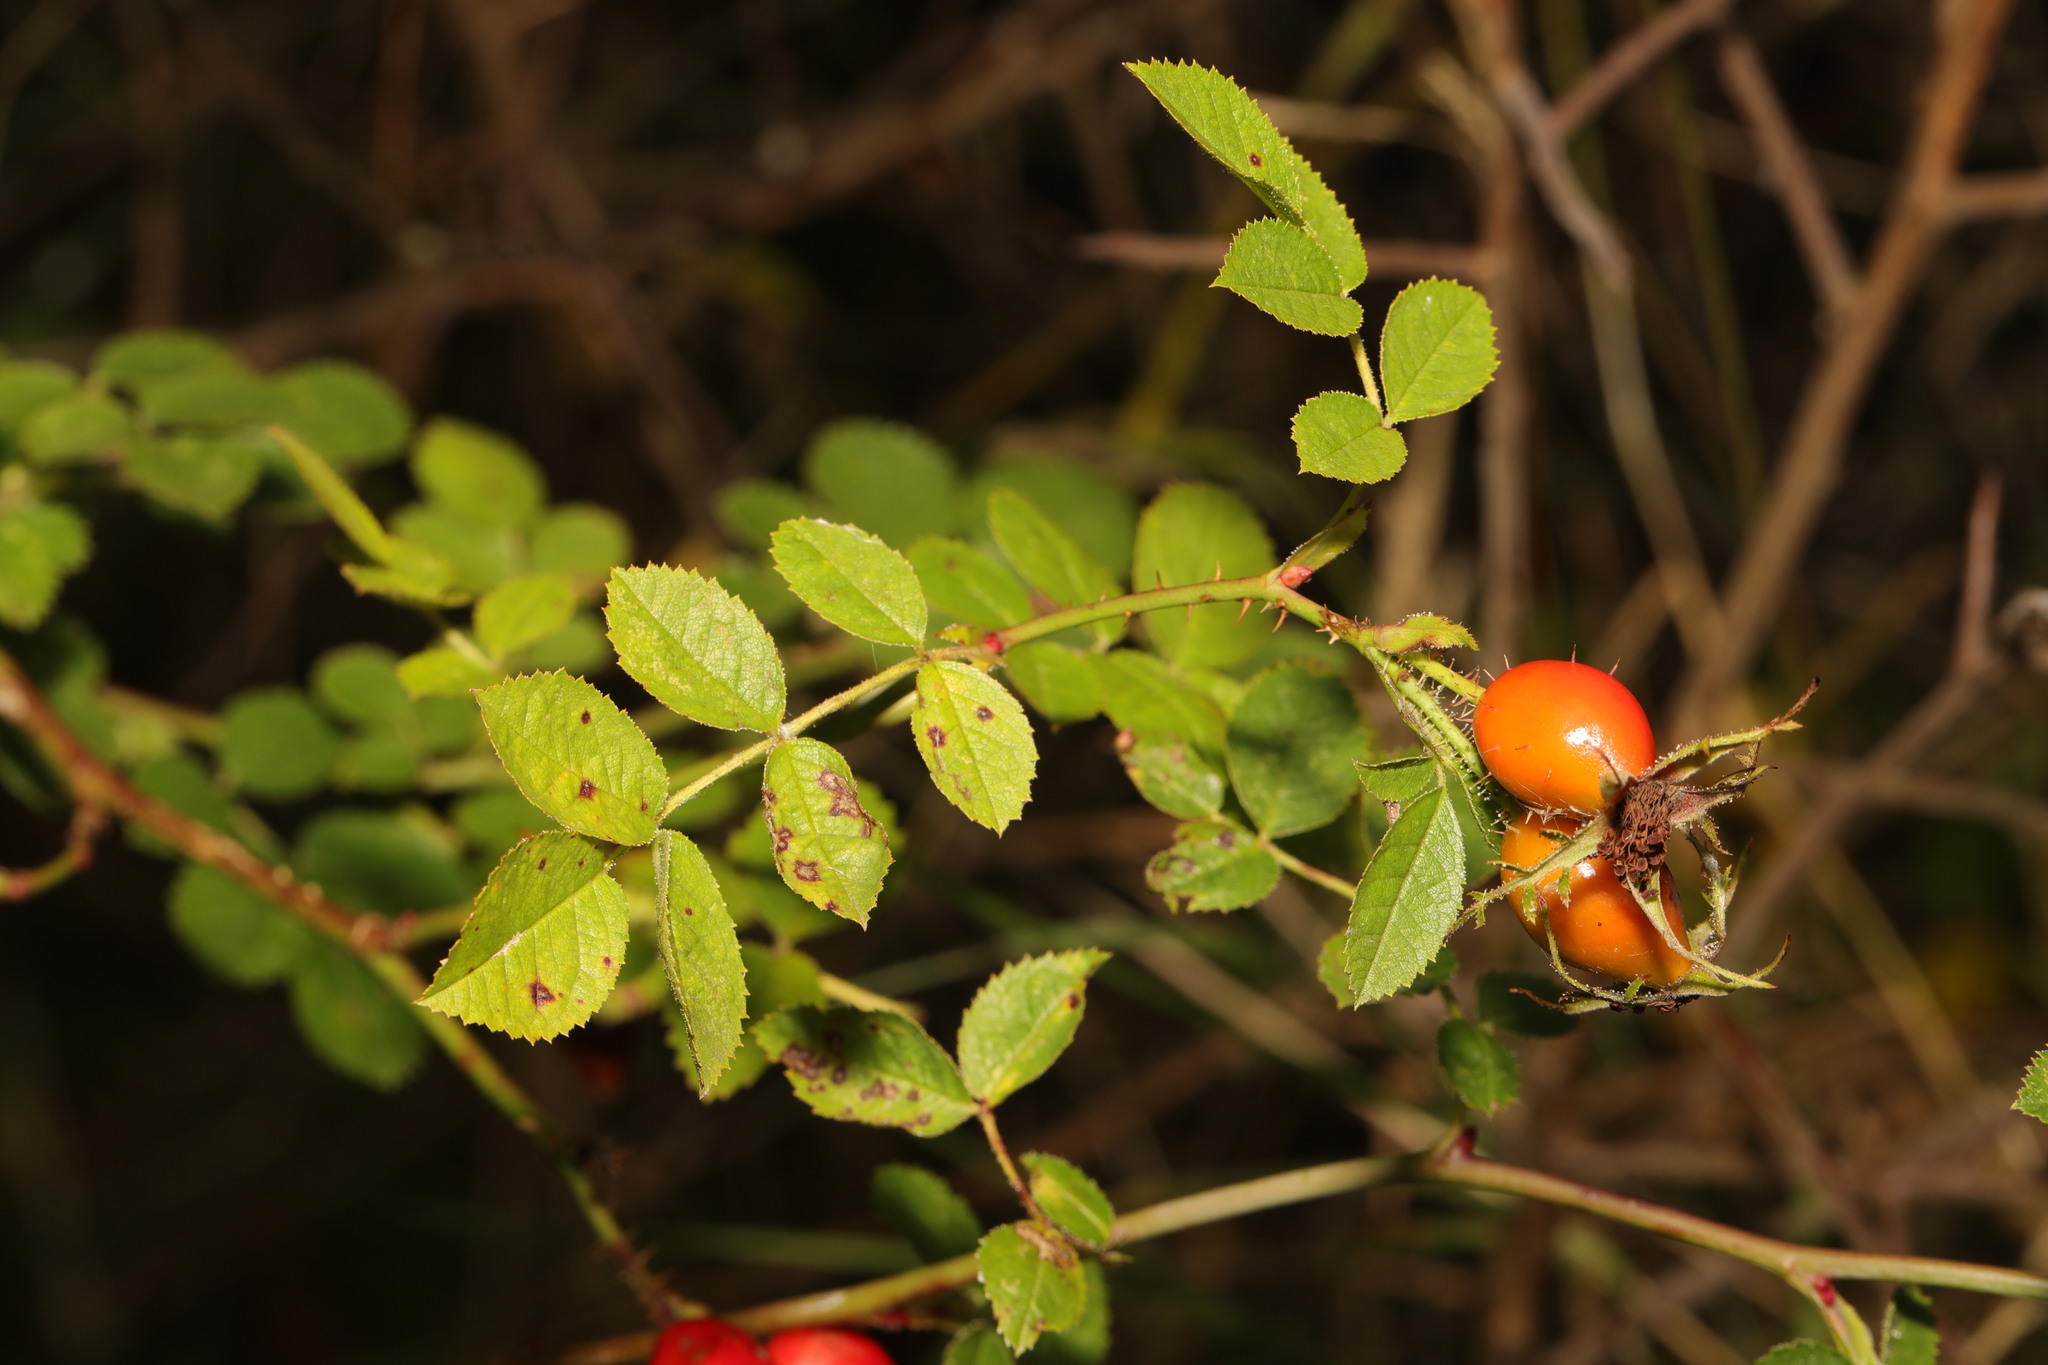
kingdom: Plantae
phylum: Tracheophyta
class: Magnoliopsida
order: Rosales
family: Rosaceae
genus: Rosa
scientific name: Rosa rubiginosa
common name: Sweet-briar
